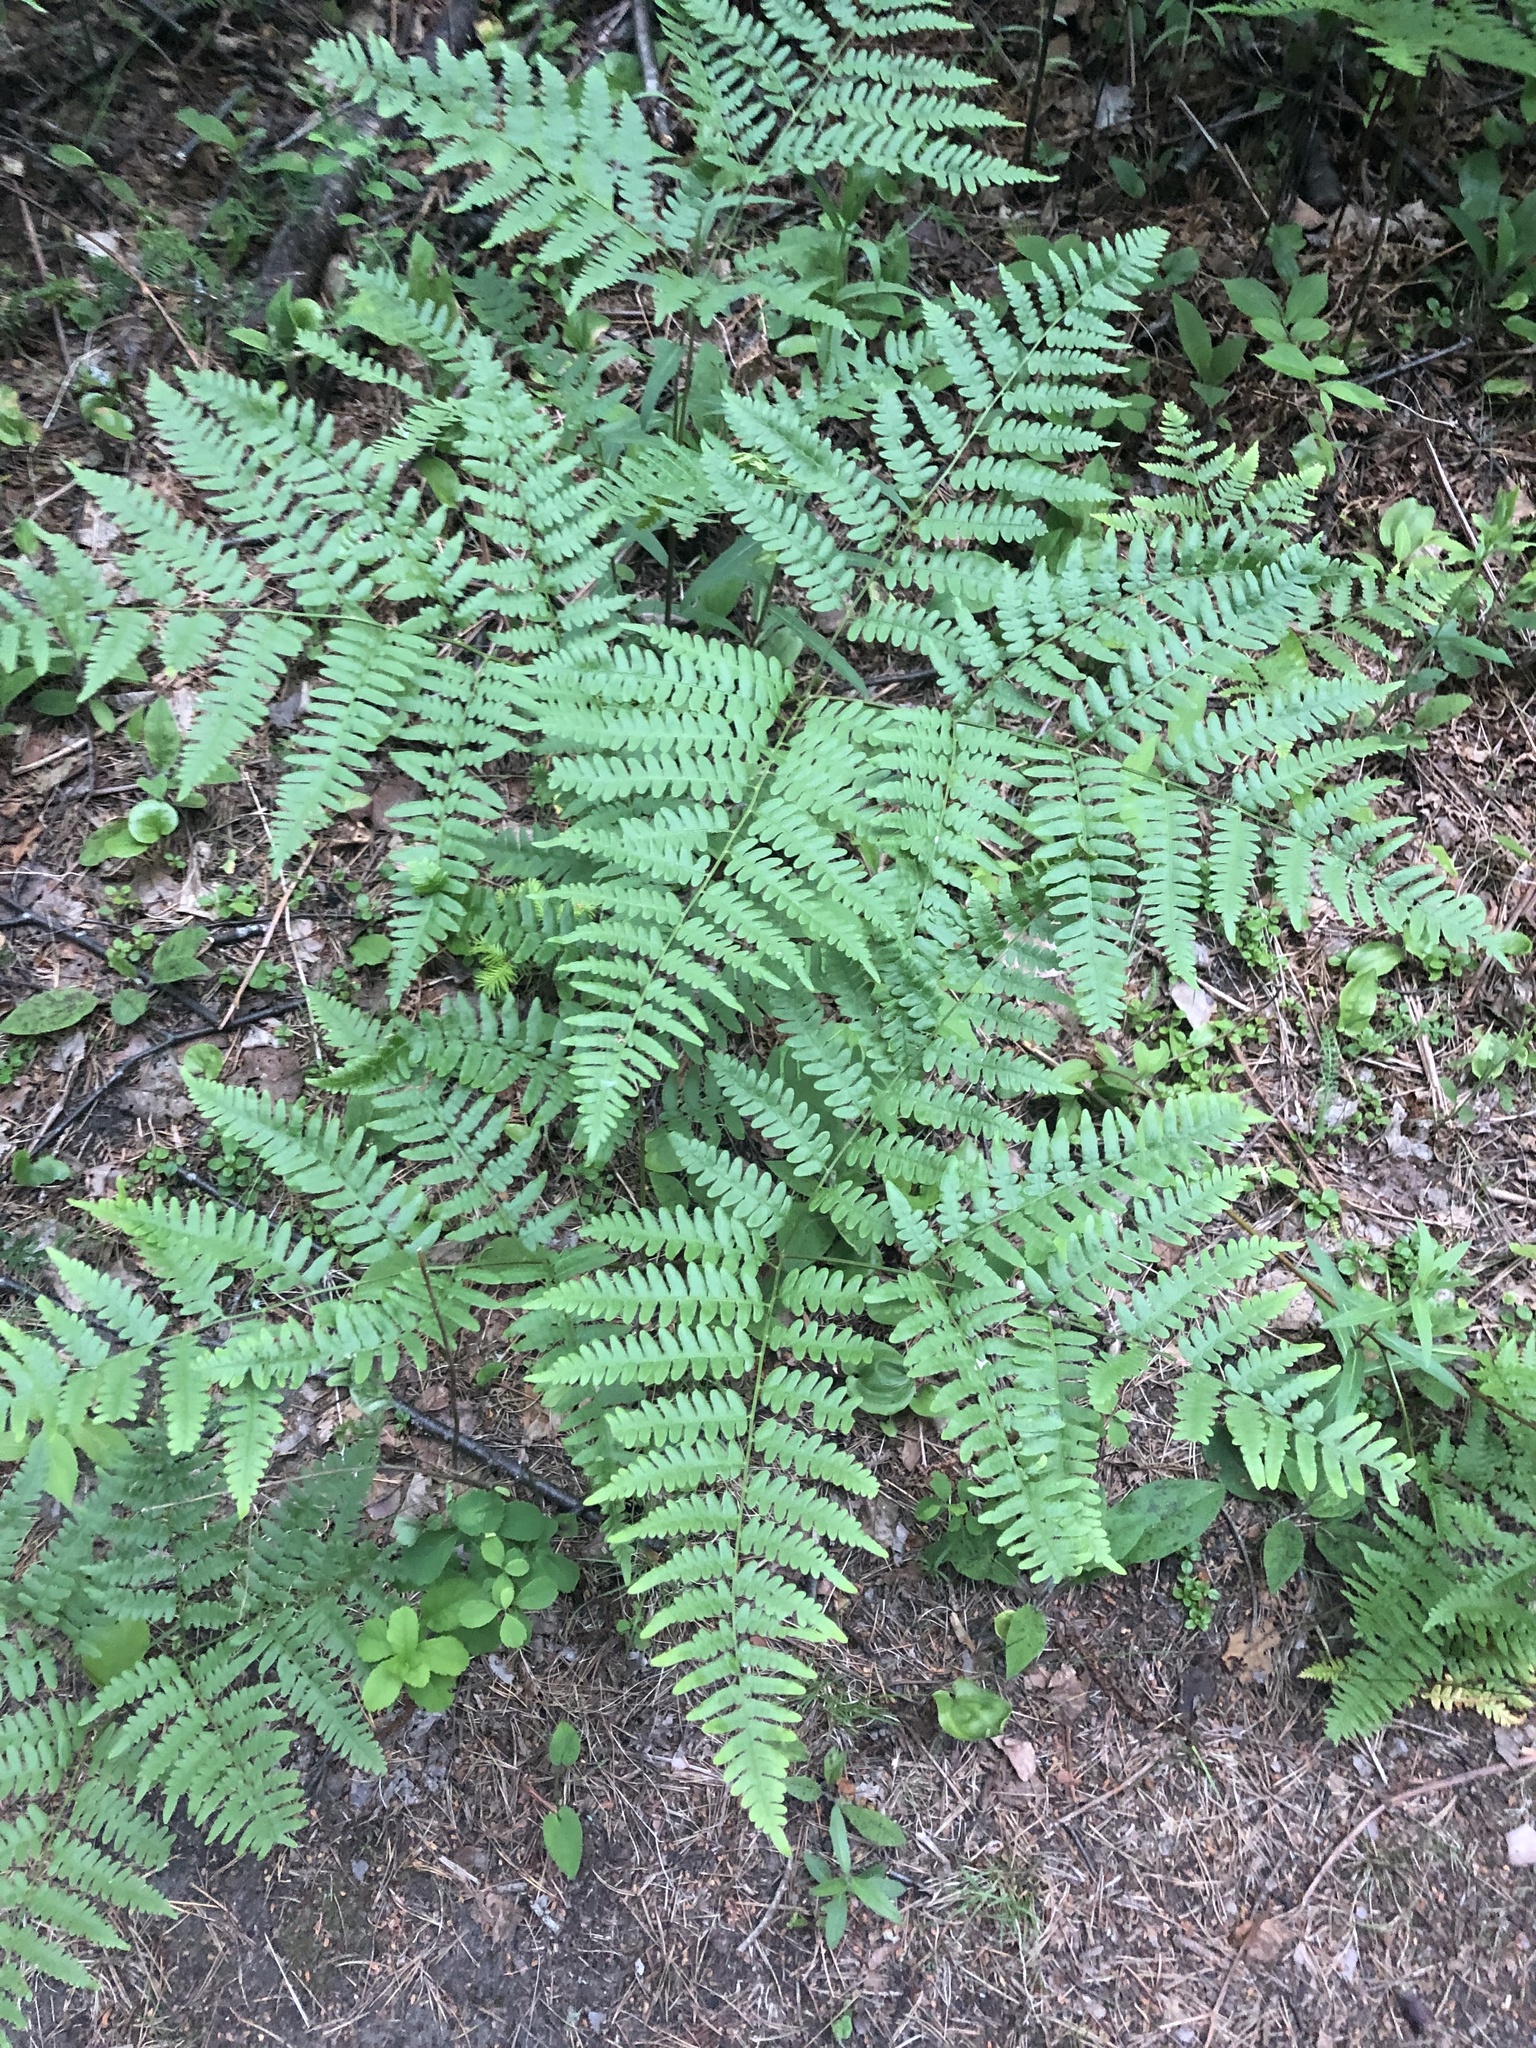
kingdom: Plantae
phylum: Tracheophyta
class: Polypodiopsida
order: Polypodiales
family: Dennstaedtiaceae
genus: Pteridium
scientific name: Pteridium aquilinum
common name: Bracken
